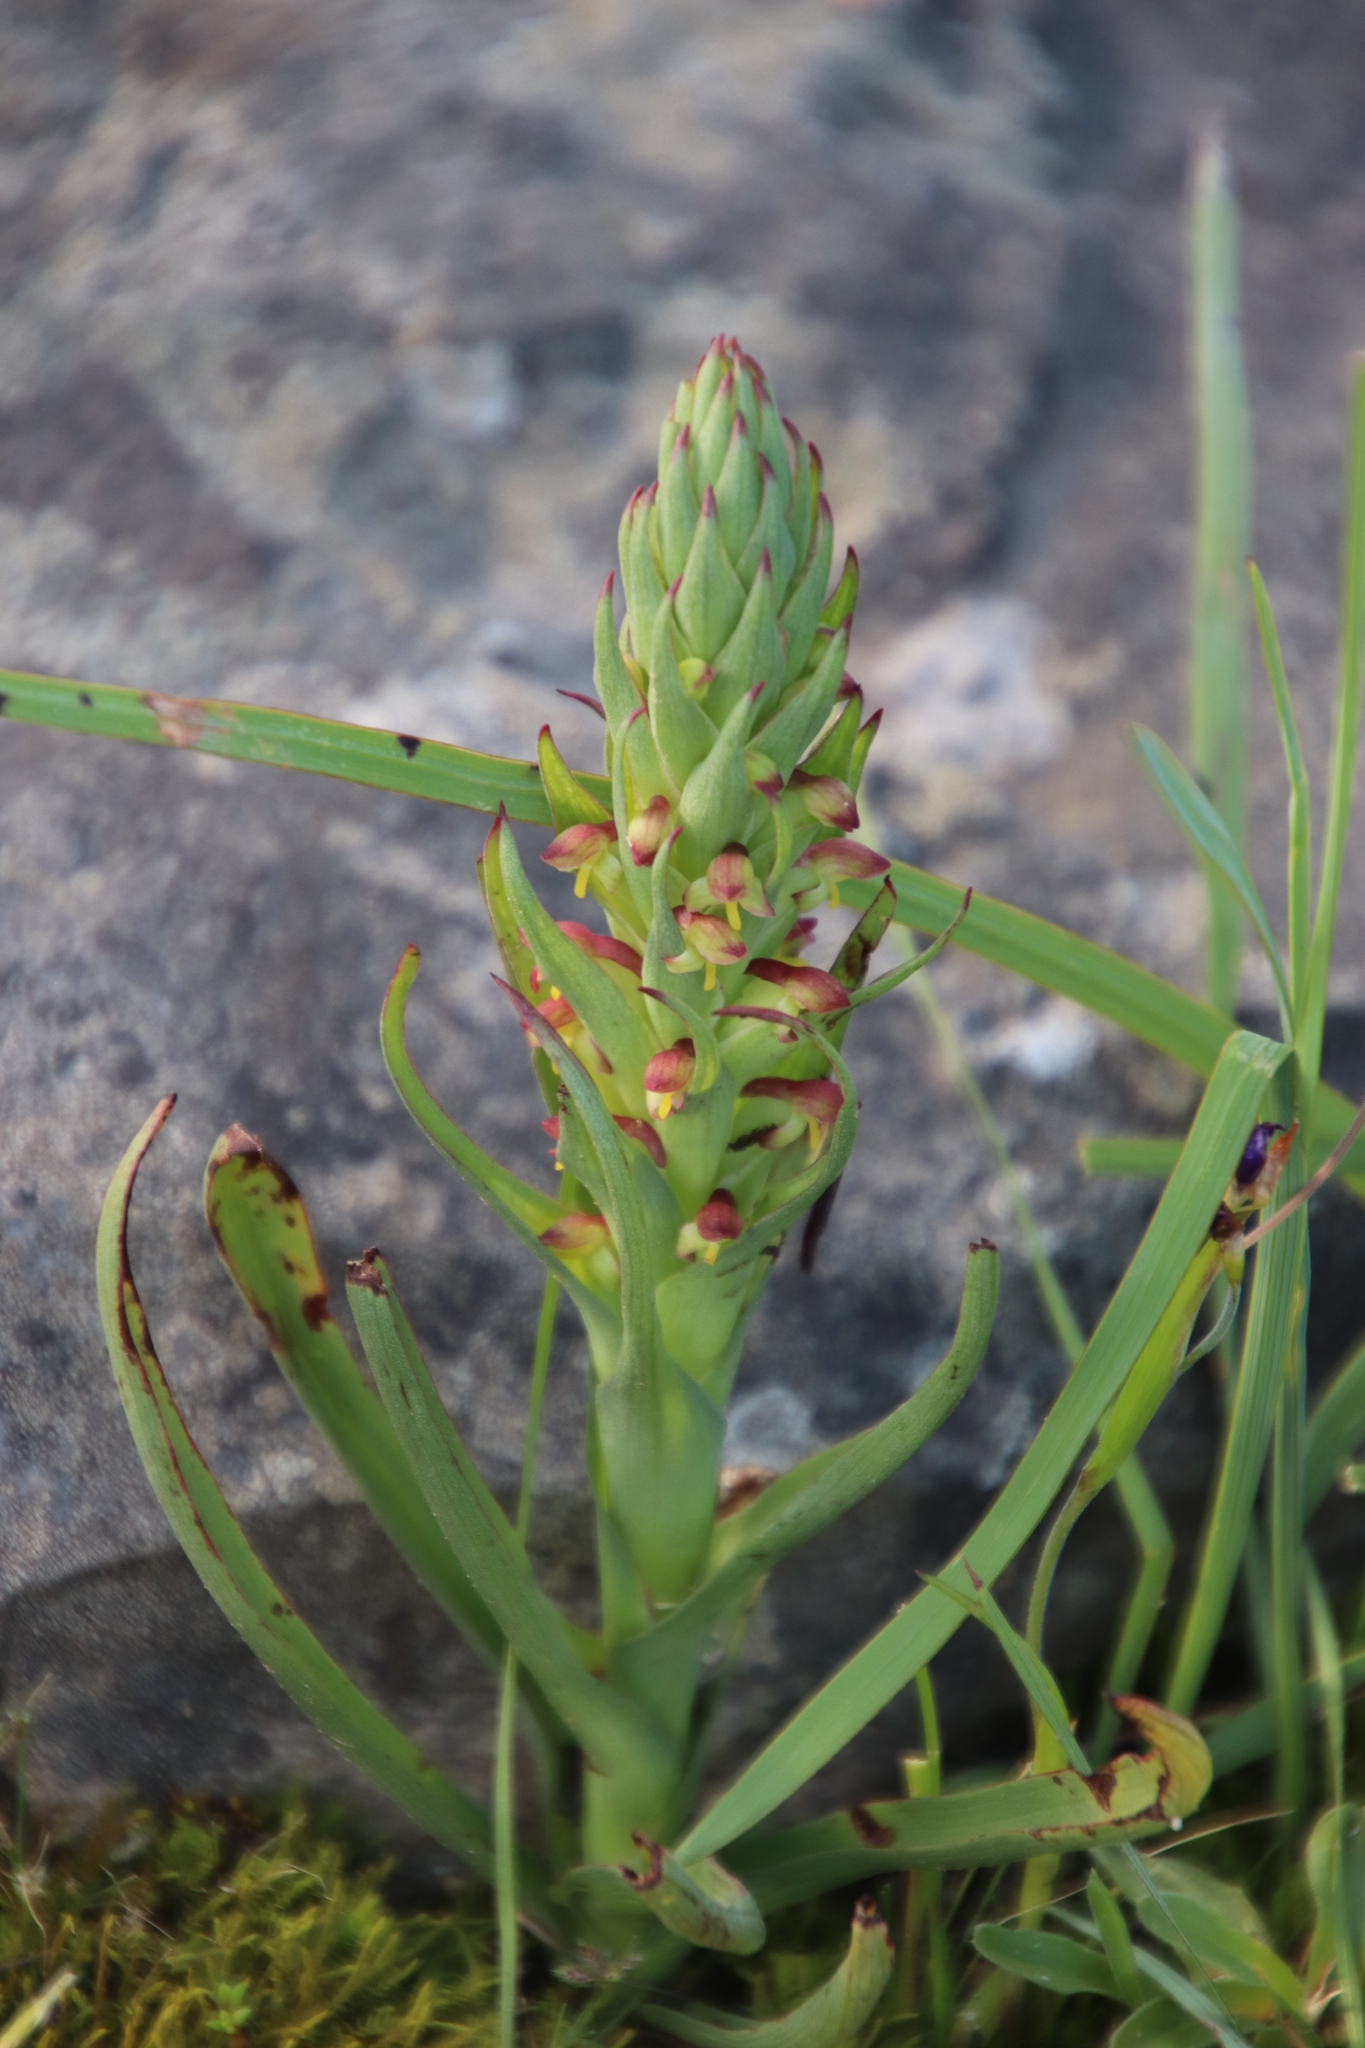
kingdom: Plantae
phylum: Tracheophyta
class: Liliopsida
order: Asparagales
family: Orchidaceae
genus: Disa
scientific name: Disa bracteata
